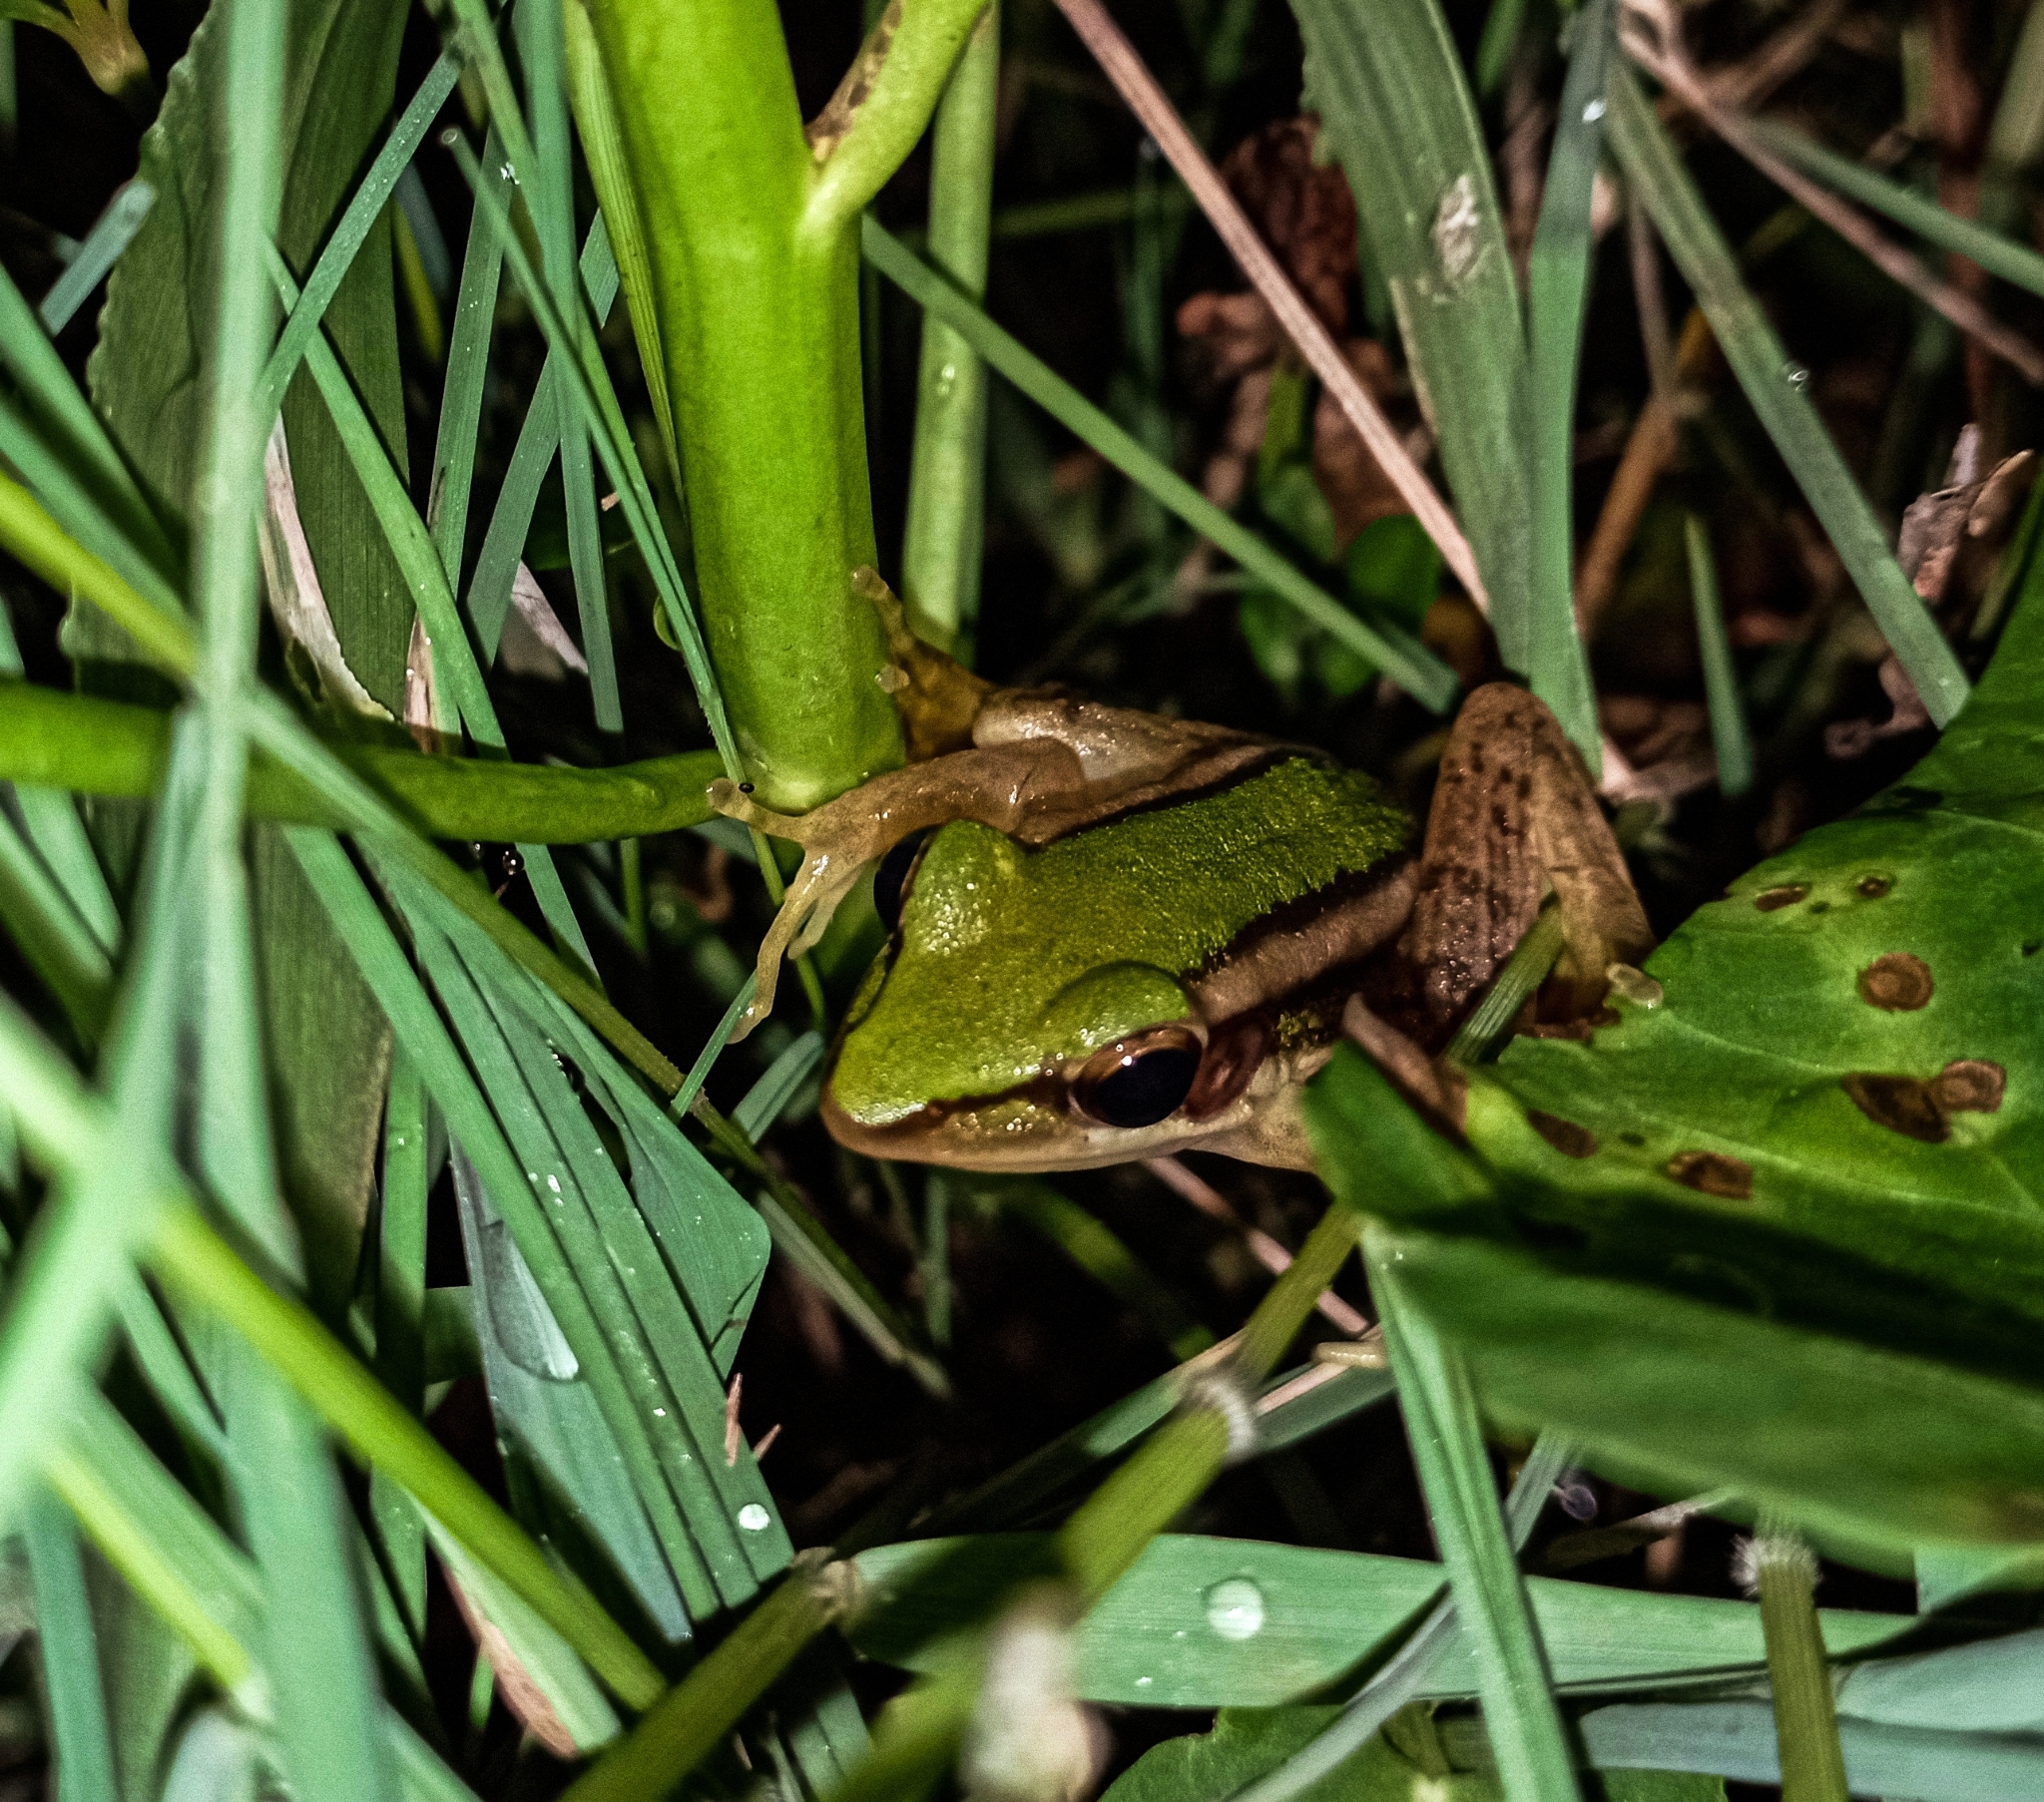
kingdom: Animalia
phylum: Chordata
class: Amphibia
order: Anura
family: Ranidae
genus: Hylarana
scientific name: Hylarana erythraea
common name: Common green frog/green paddy frog/leaf frog
